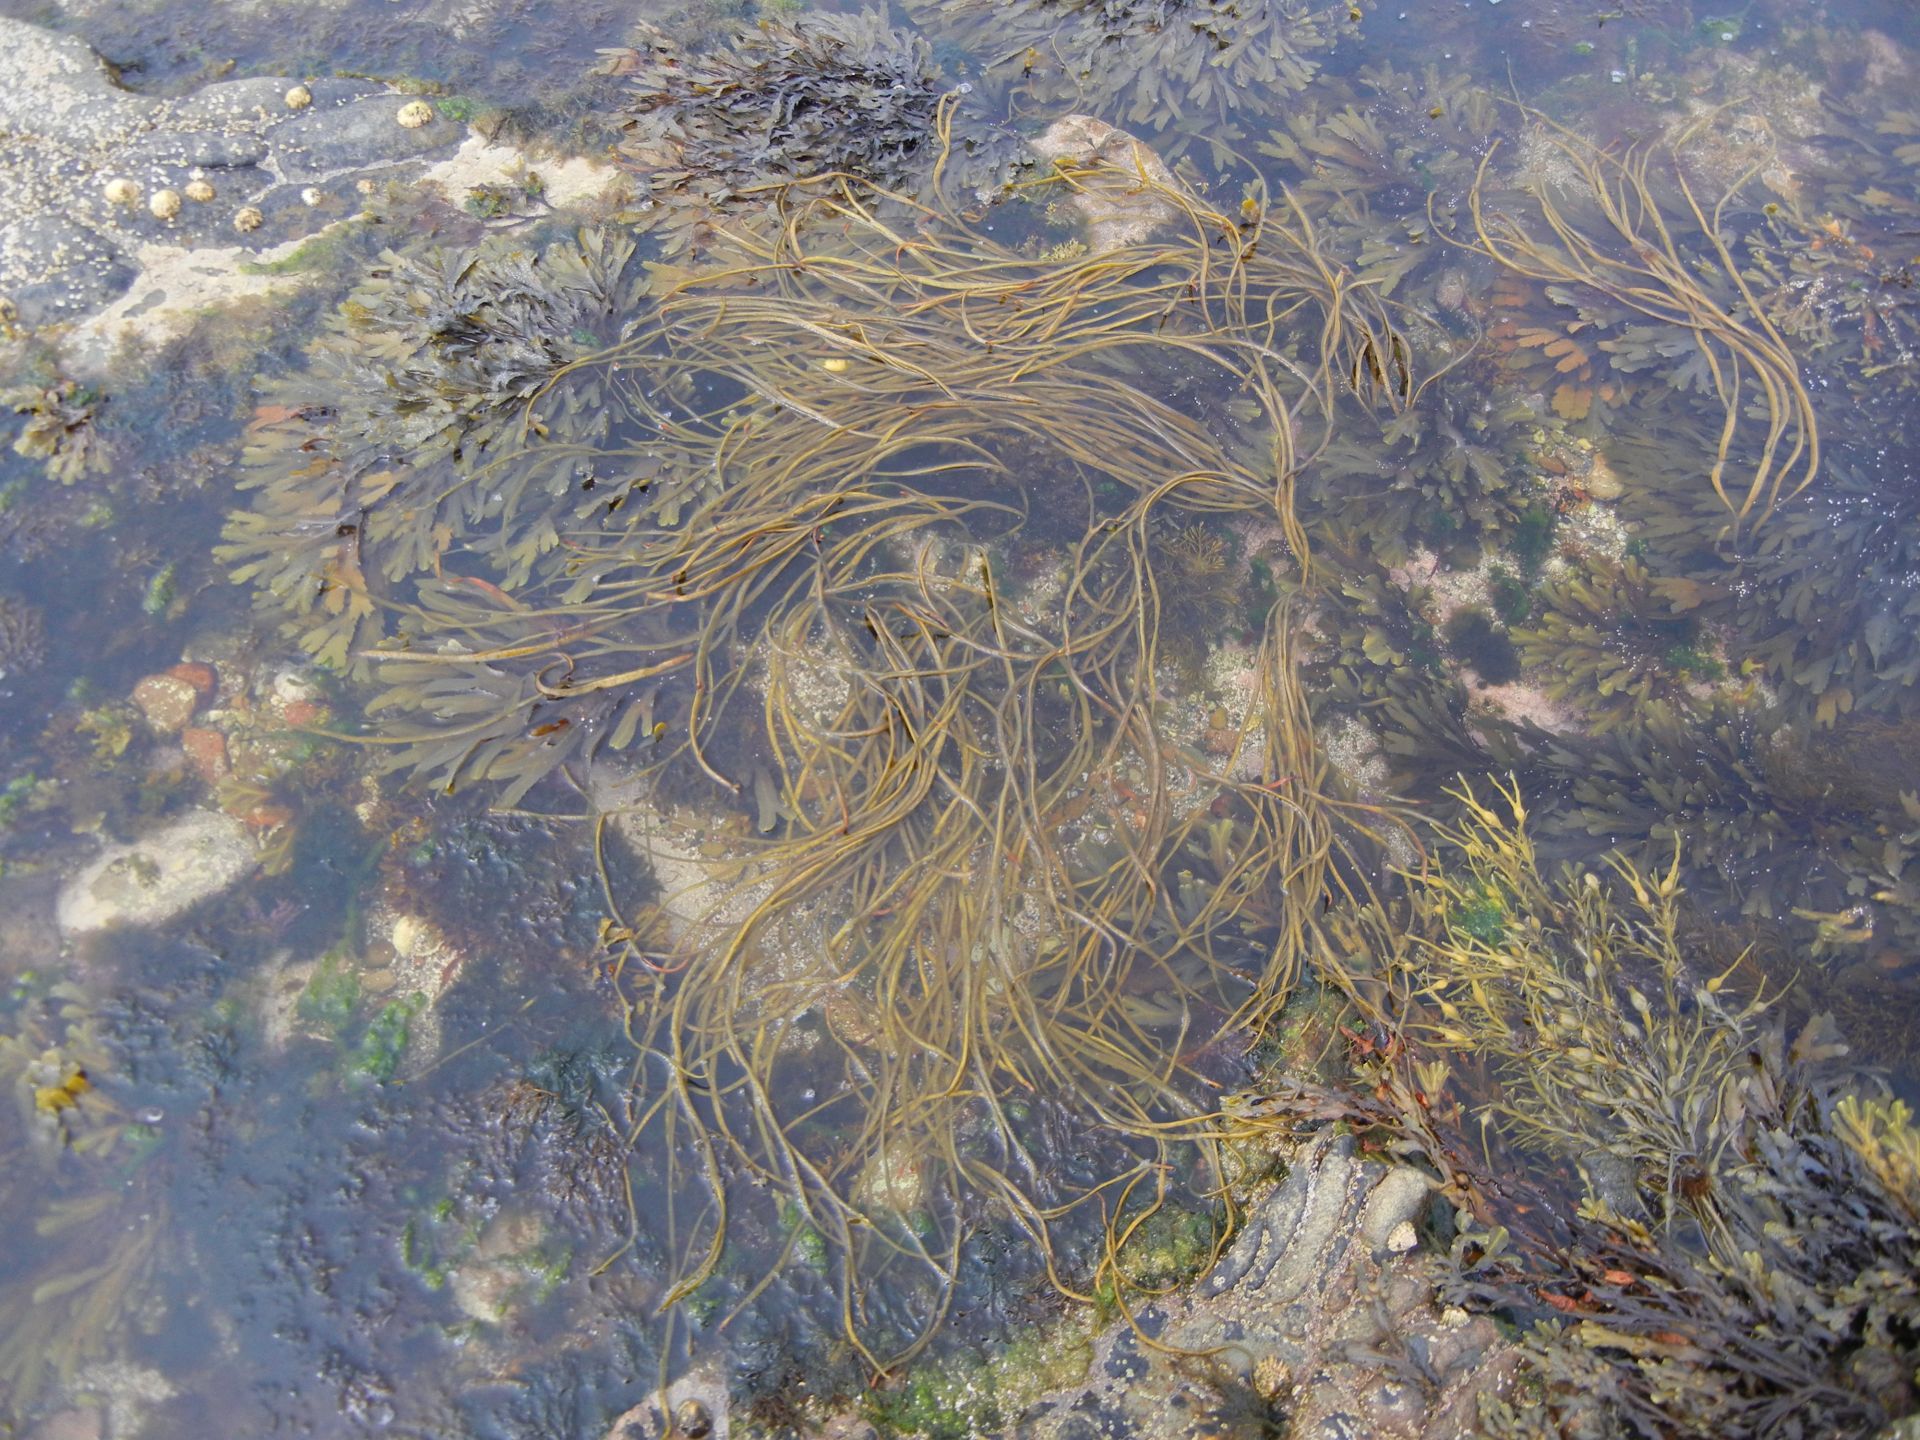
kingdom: Chromista
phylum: Ochrophyta
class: Phaeophyceae
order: Fucales
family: Himanthaliaceae
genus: Himanthalia
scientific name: Himanthalia elongata
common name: Sea-thong
